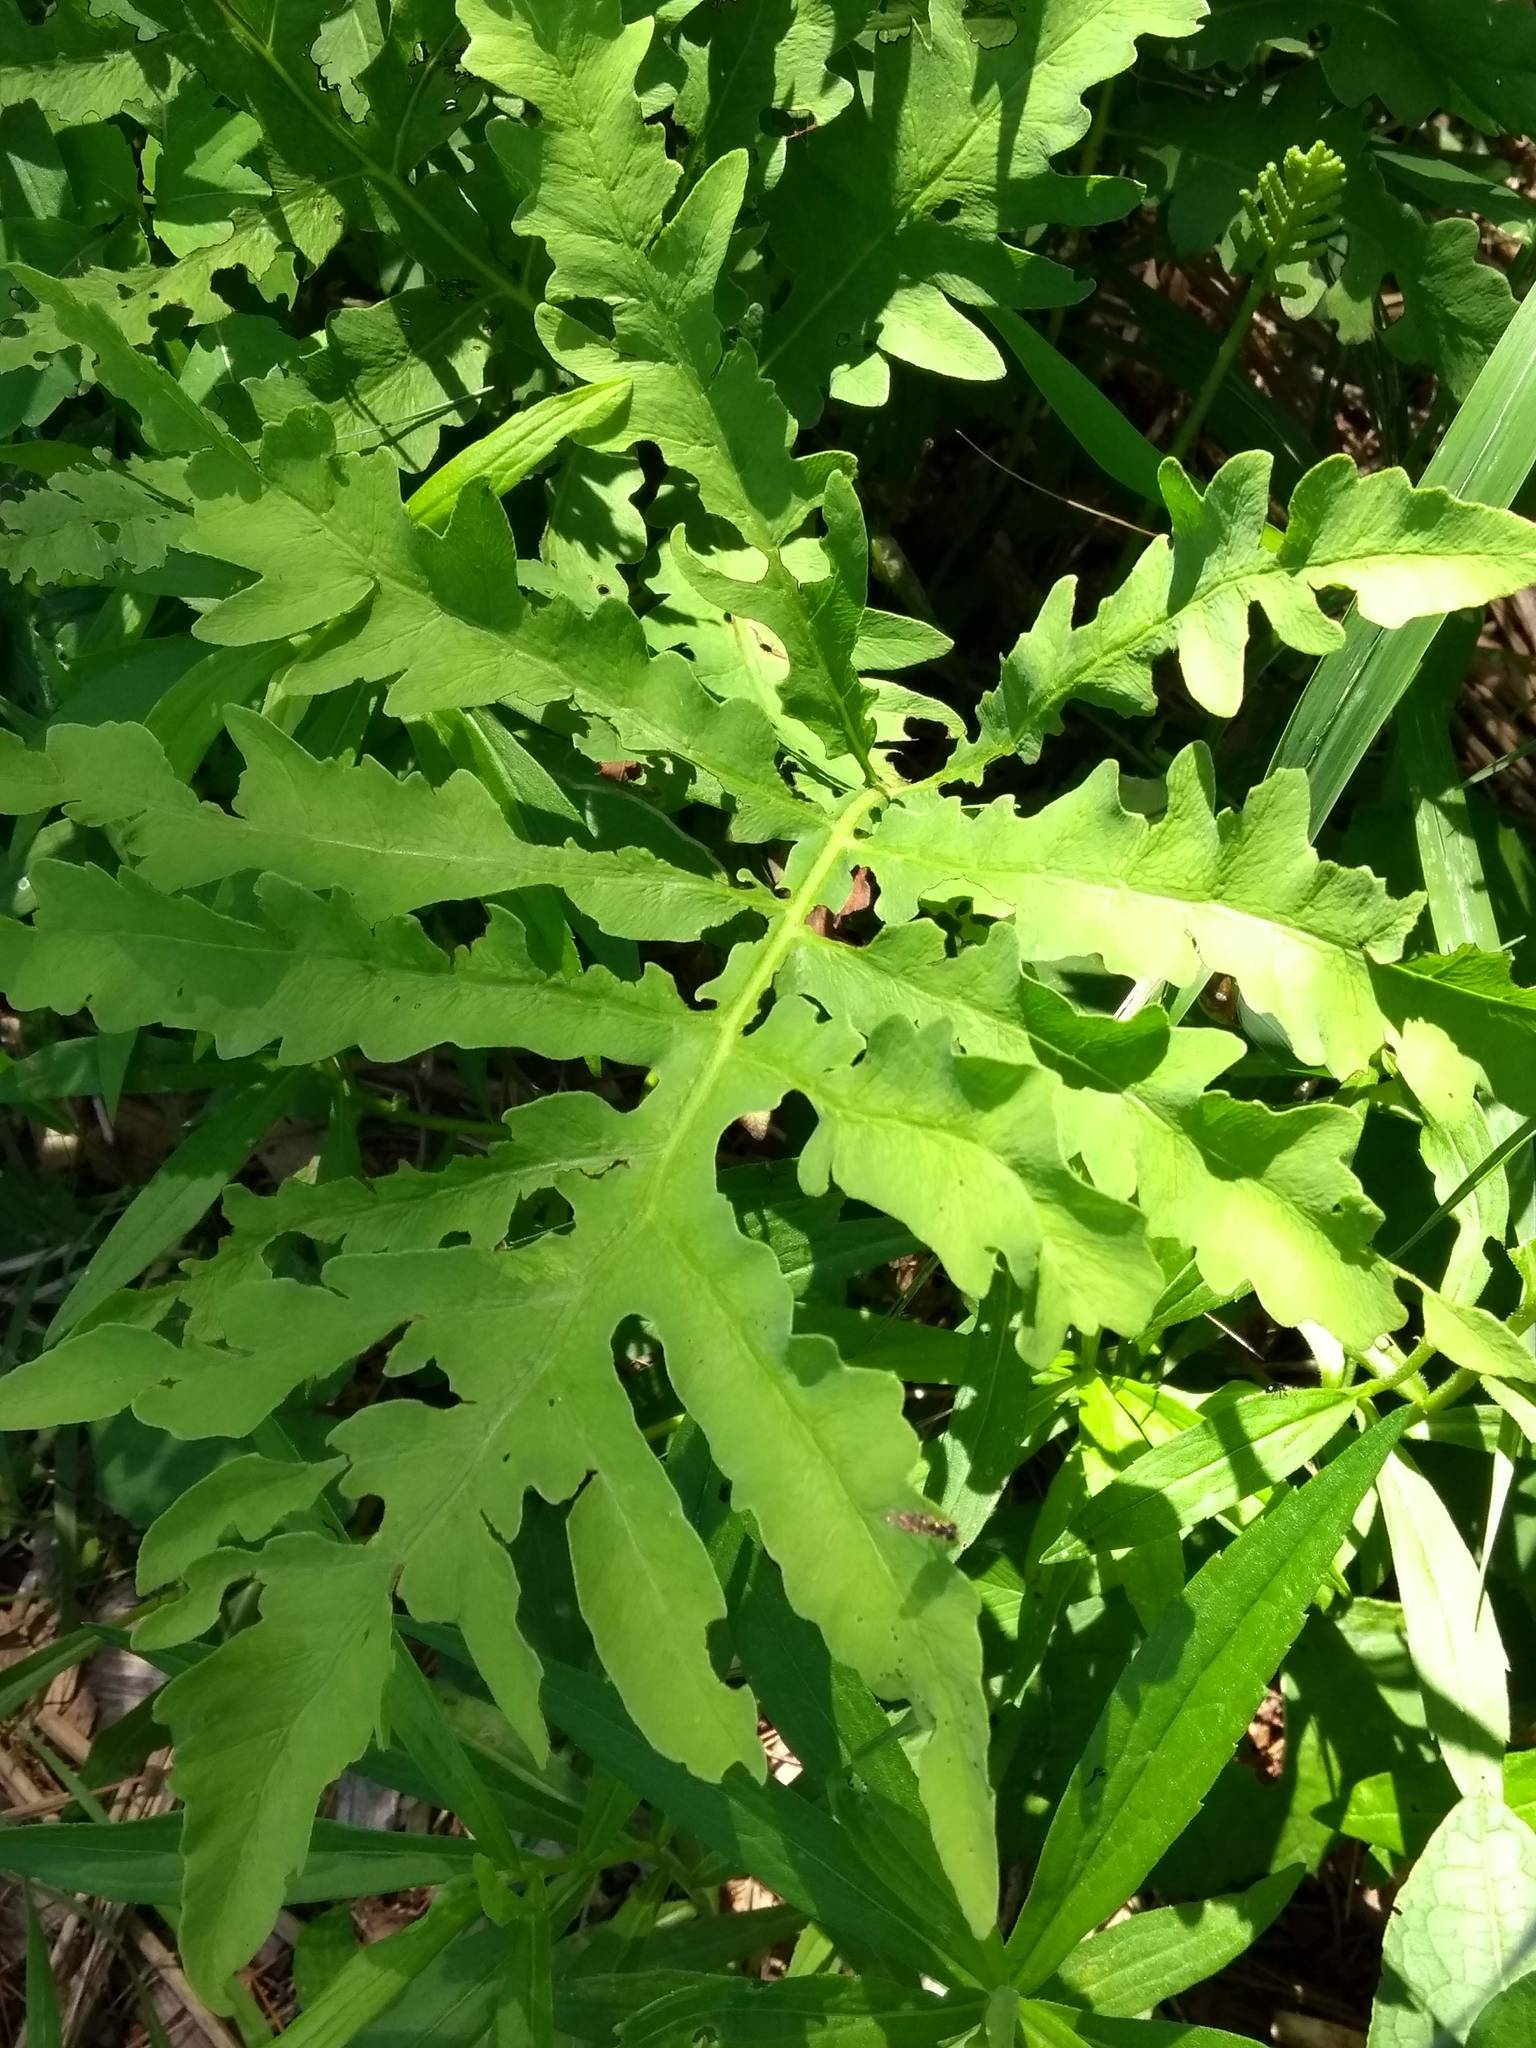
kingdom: Plantae
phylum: Tracheophyta
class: Polypodiopsida
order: Polypodiales
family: Onocleaceae
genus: Onoclea
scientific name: Onoclea sensibilis
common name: Sensitive fern
